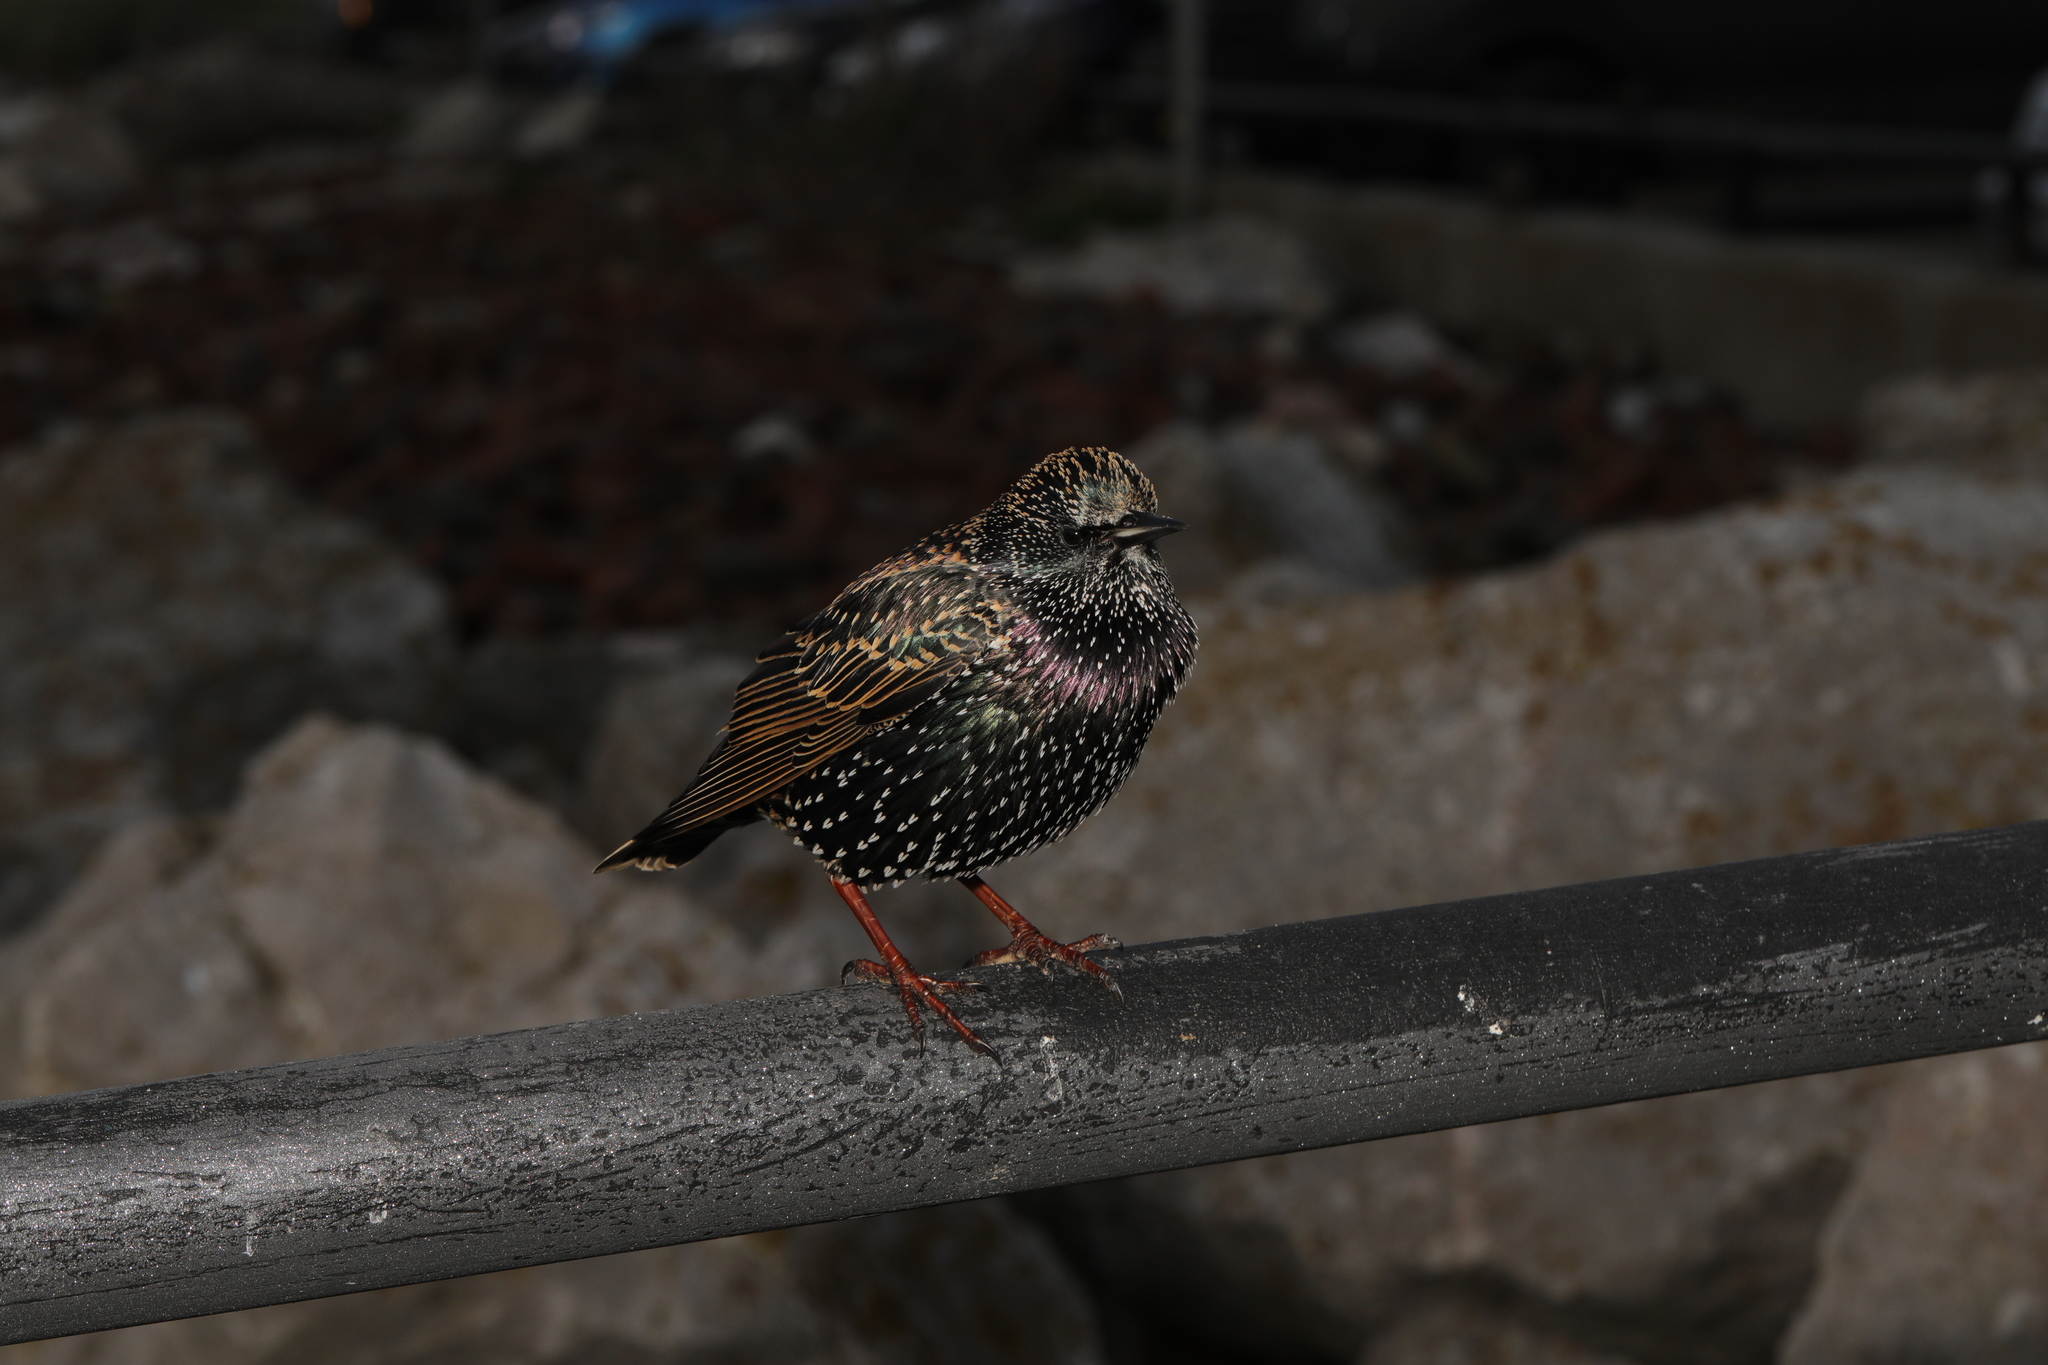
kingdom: Animalia
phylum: Chordata
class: Aves
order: Passeriformes
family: Sturnidae
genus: Sturnus
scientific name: Sturnus vulgaris
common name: Common starling
